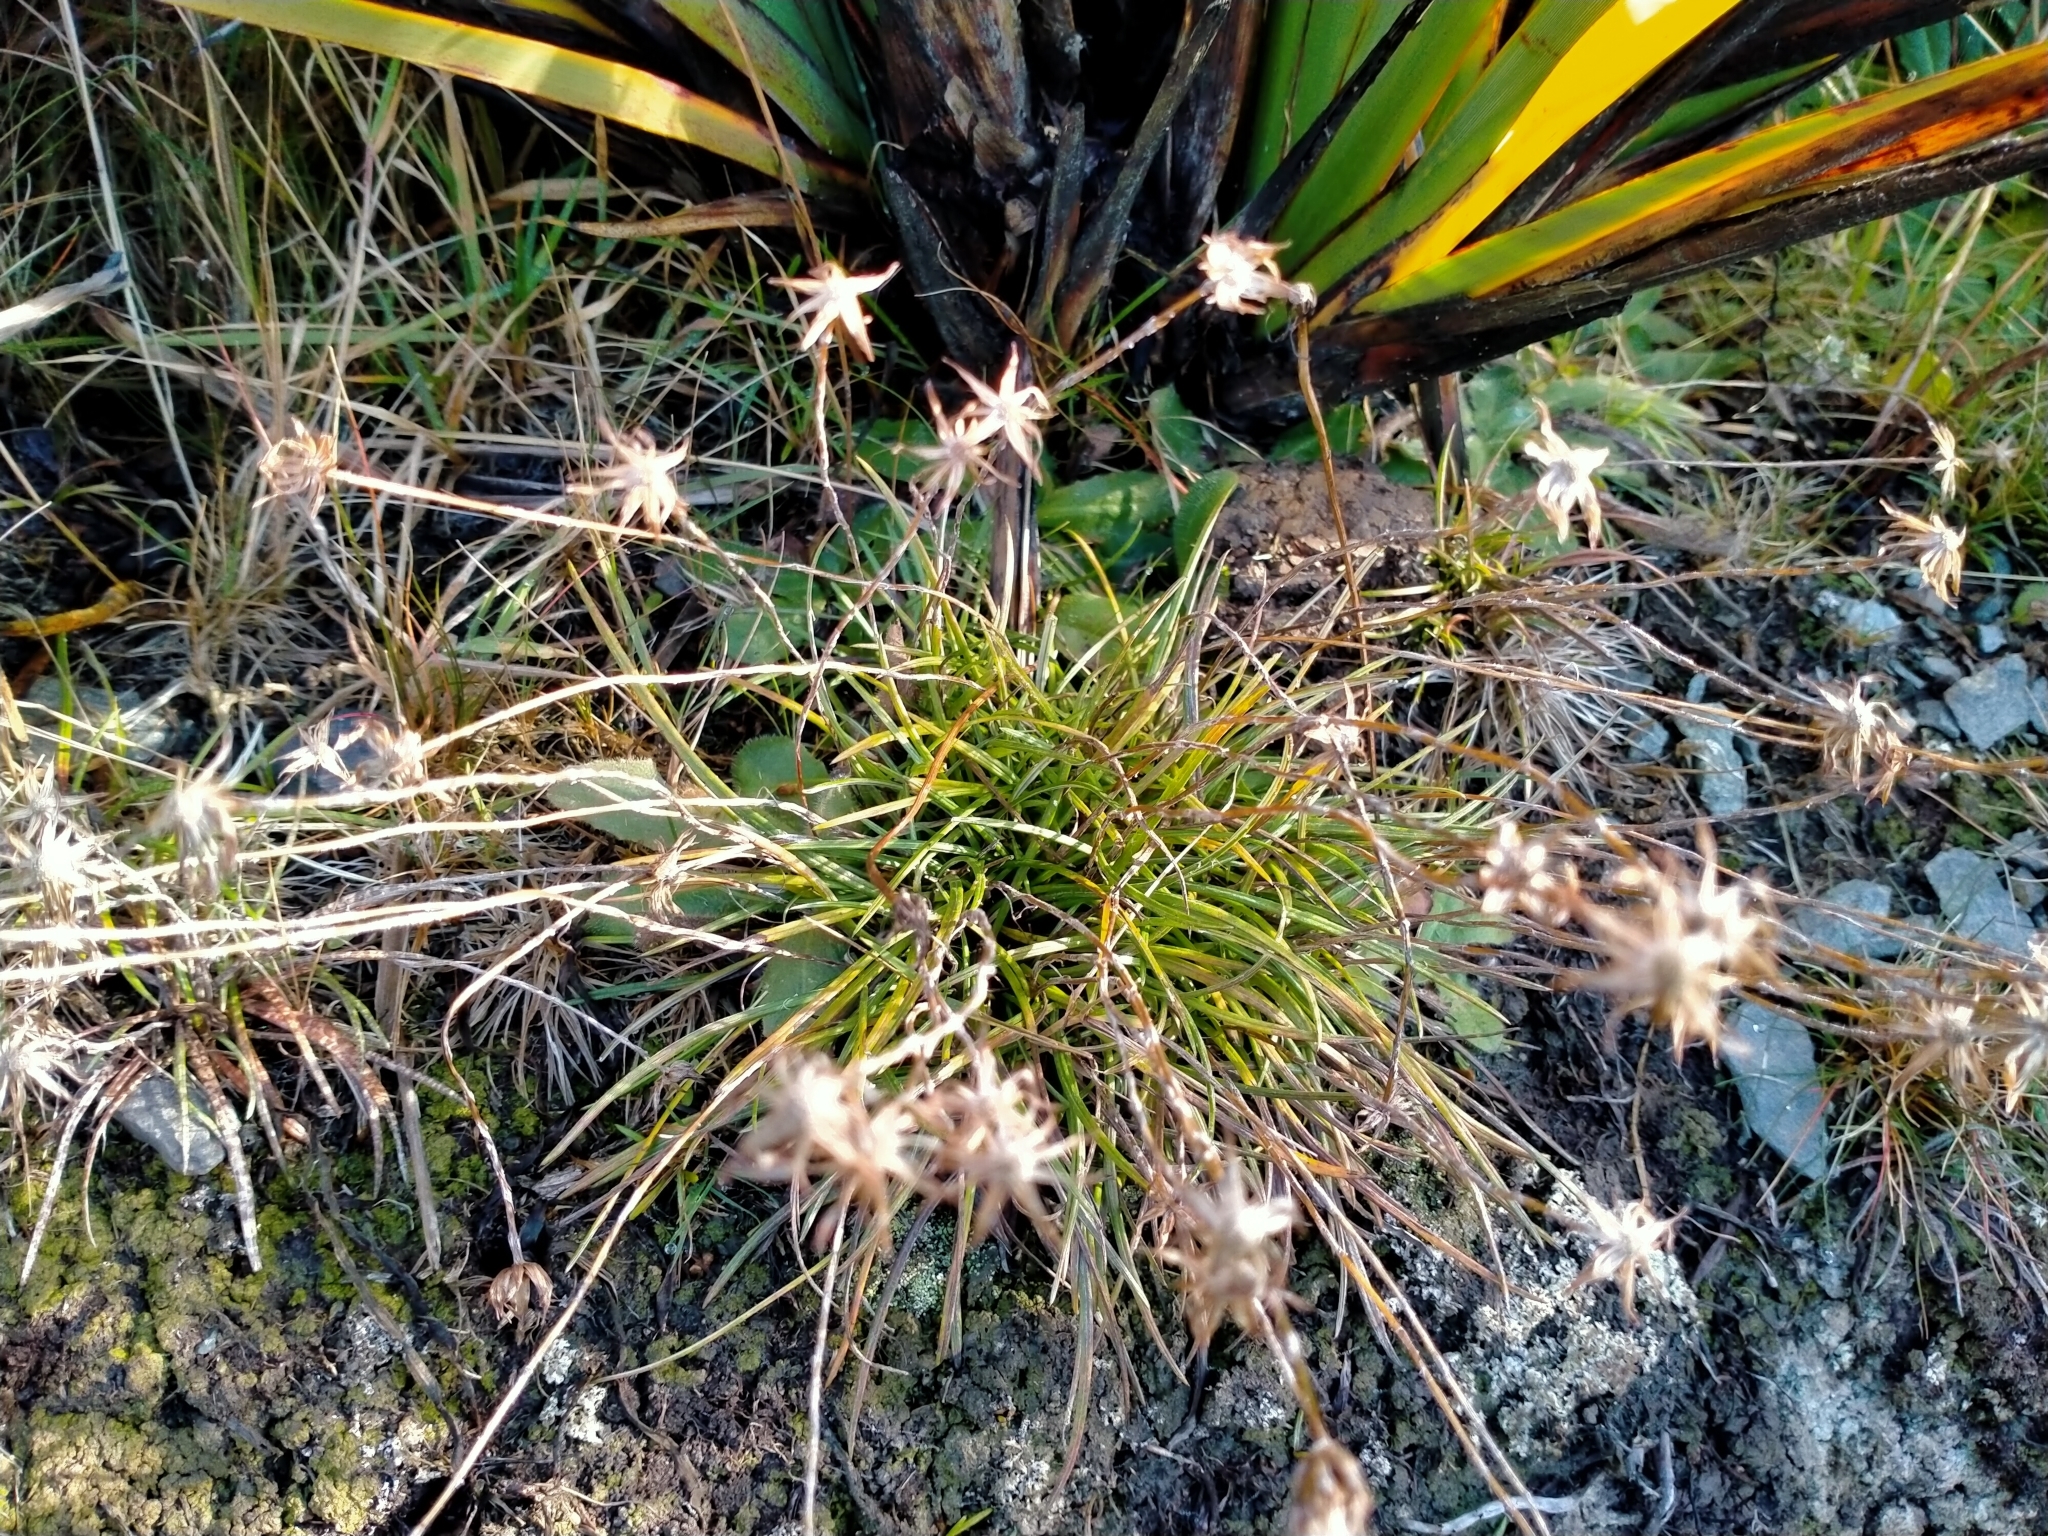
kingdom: Plantae
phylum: Tracheophyta
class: Magnoliopsida
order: Asterales
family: Asteraceae
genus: Celmisia
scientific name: Celmisia gracilenta
